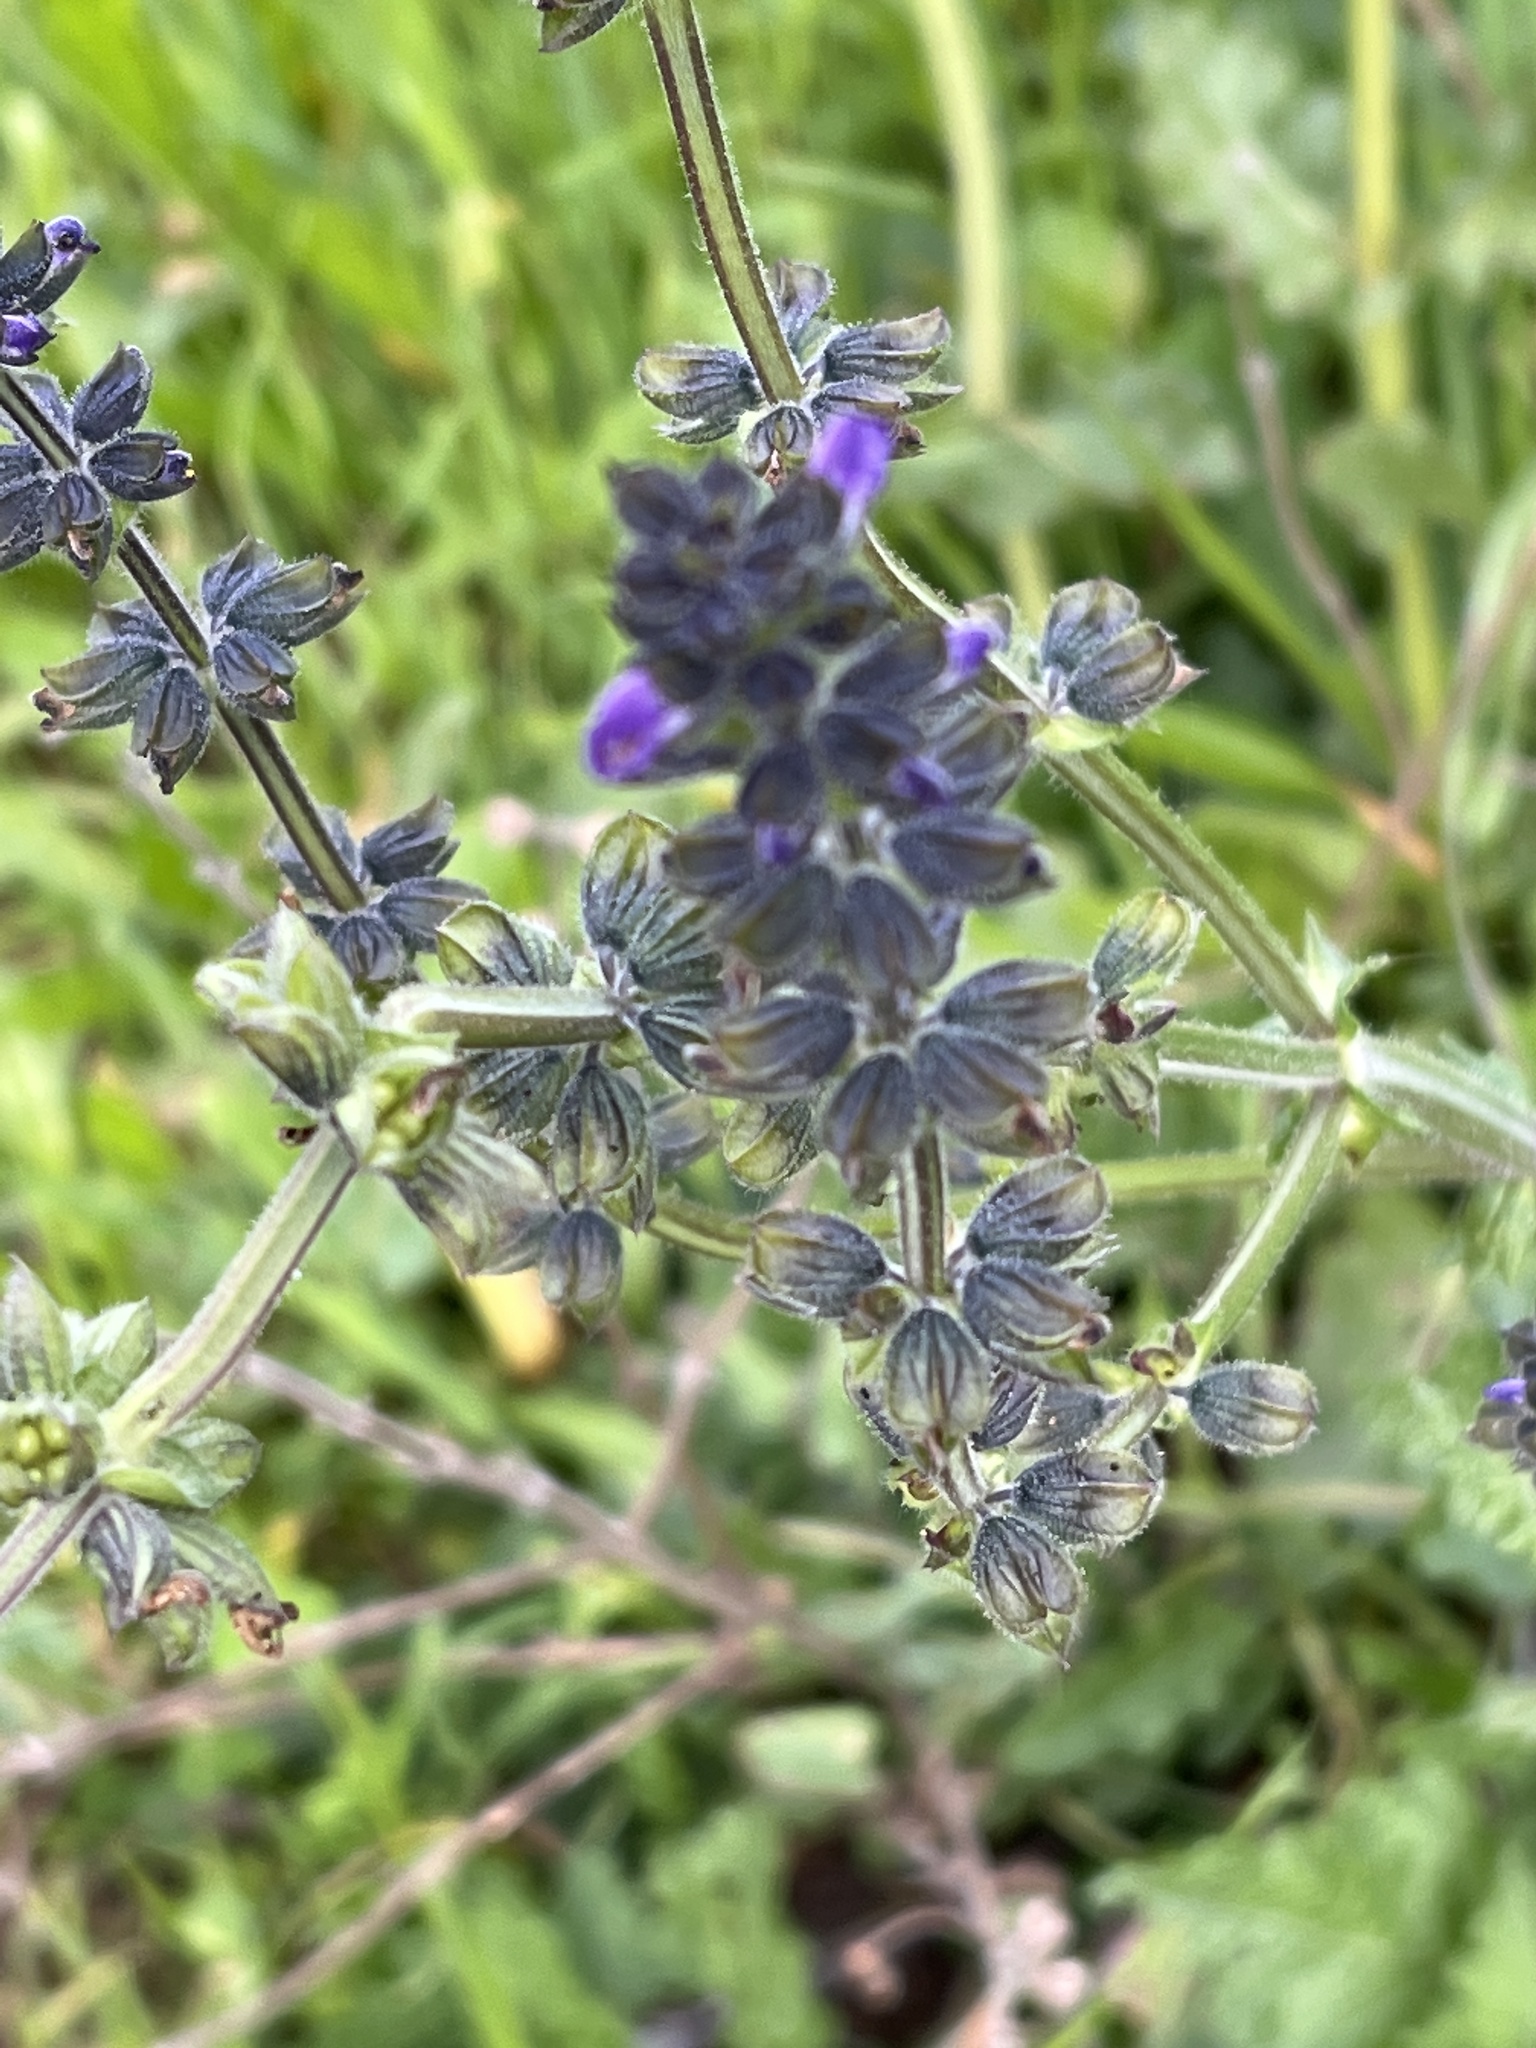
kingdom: Plantae
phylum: Tracheophyta
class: Magnoliopsida
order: Lamiales
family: Lamiaceae
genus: Salvia
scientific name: Salvia verbenaca
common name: Wild clary
